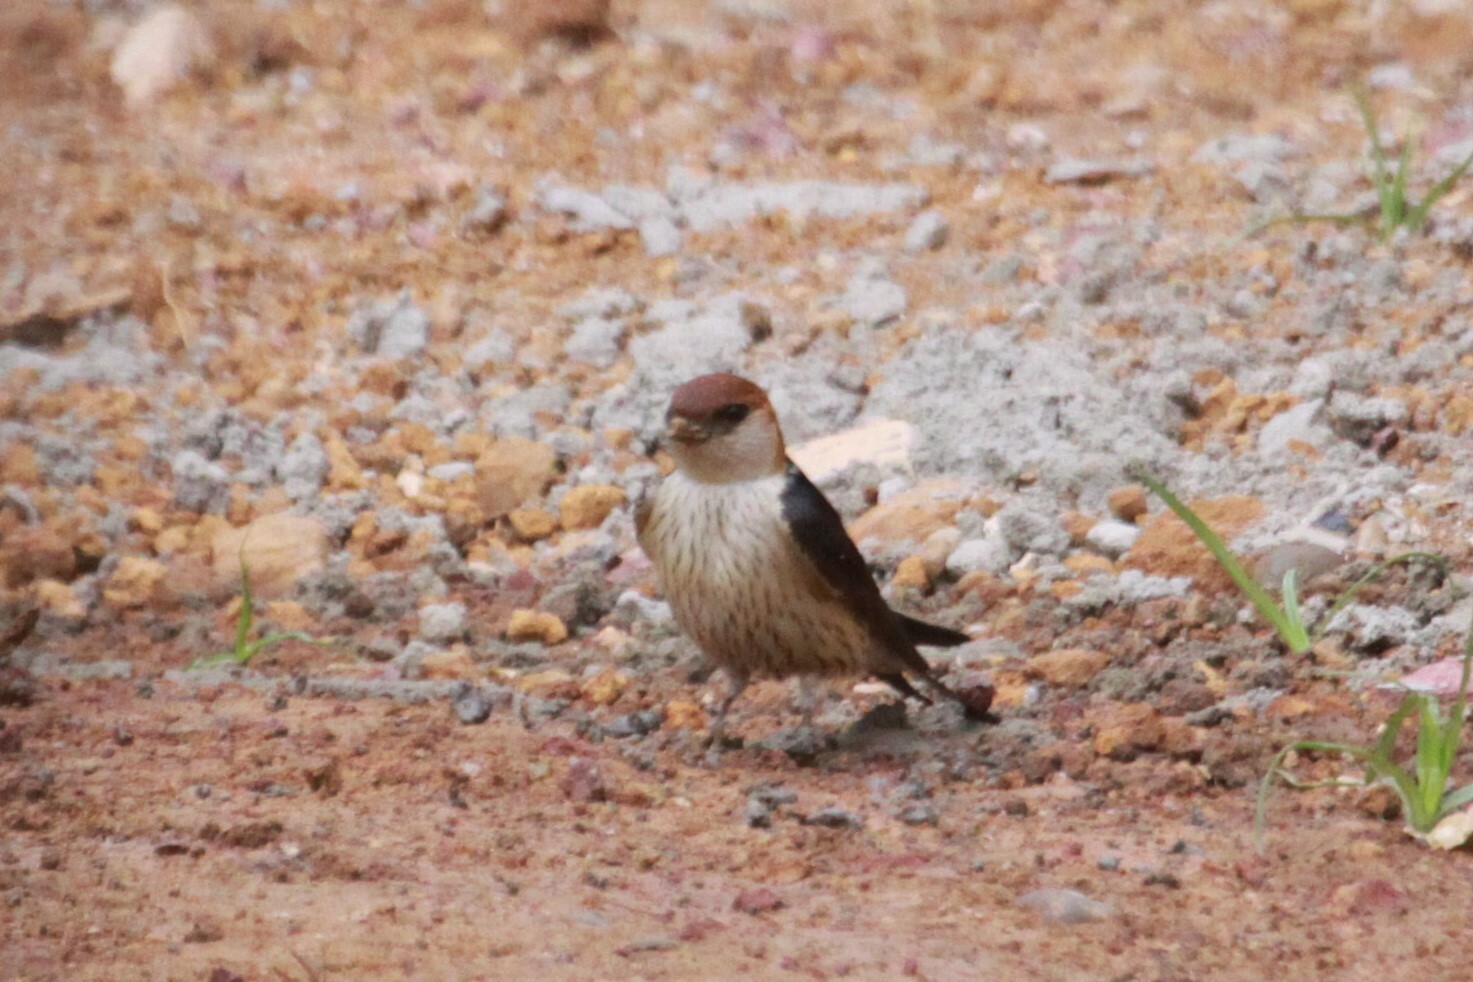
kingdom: Animalia
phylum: Chordata
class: Aves
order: Passeriformes
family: Hirundinidae
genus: Cecropis
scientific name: Cecropis cucullata
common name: Greater striped-swallow
